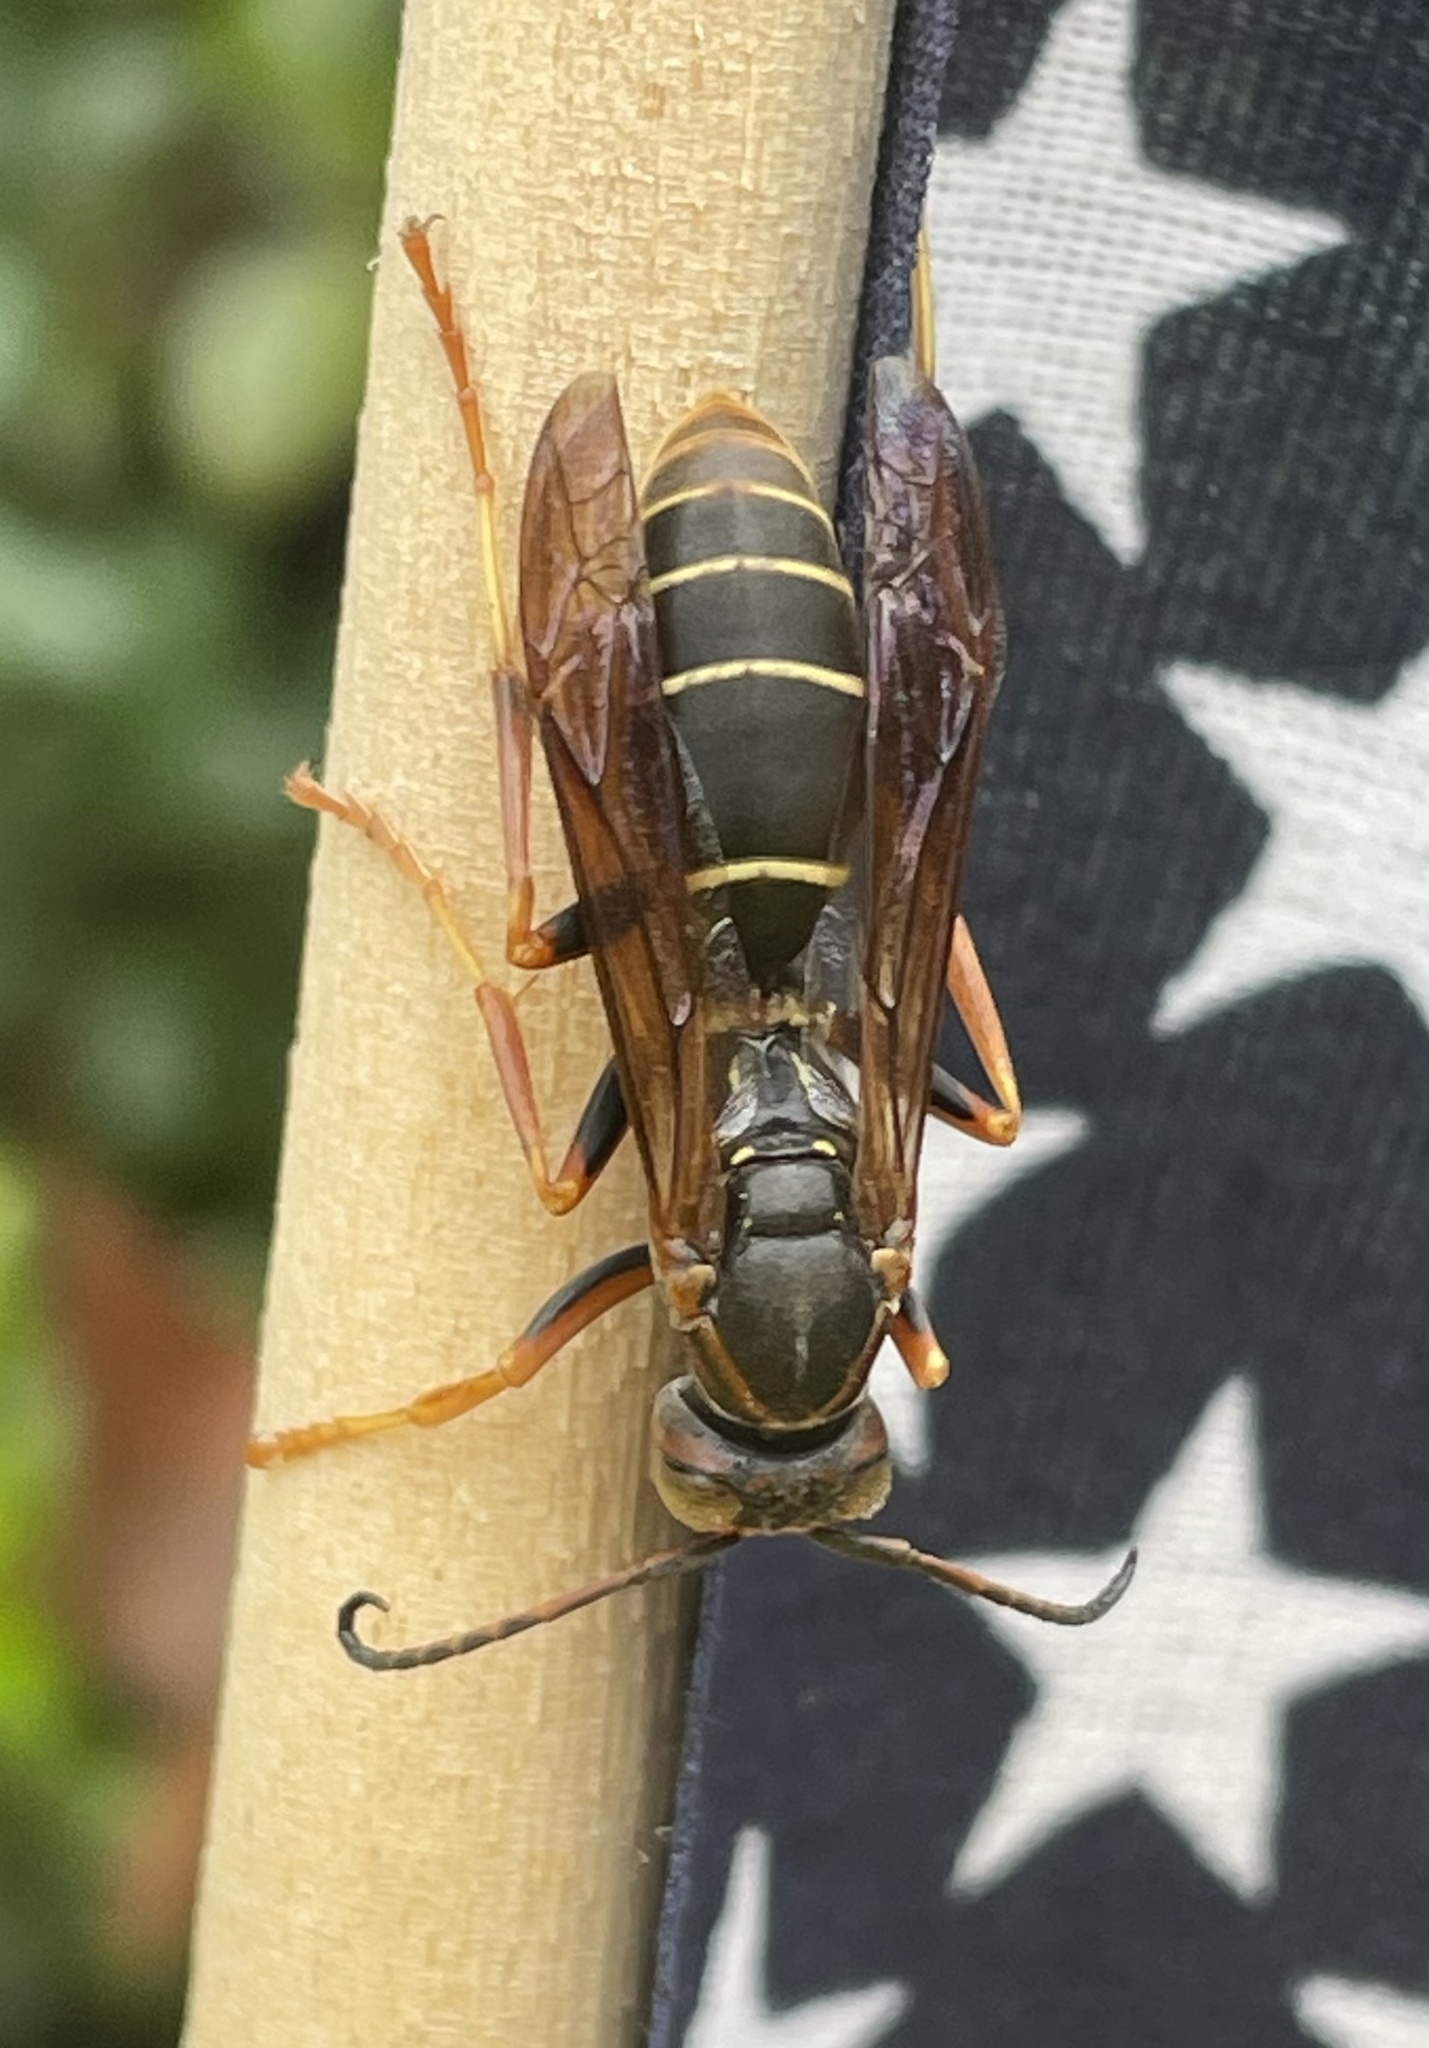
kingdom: Animalia
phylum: Arthropoda
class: Insecta
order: Hymenoptera
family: Eumenidae
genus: Polistes
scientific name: Polistes fuscatus
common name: Dark paper wasp
